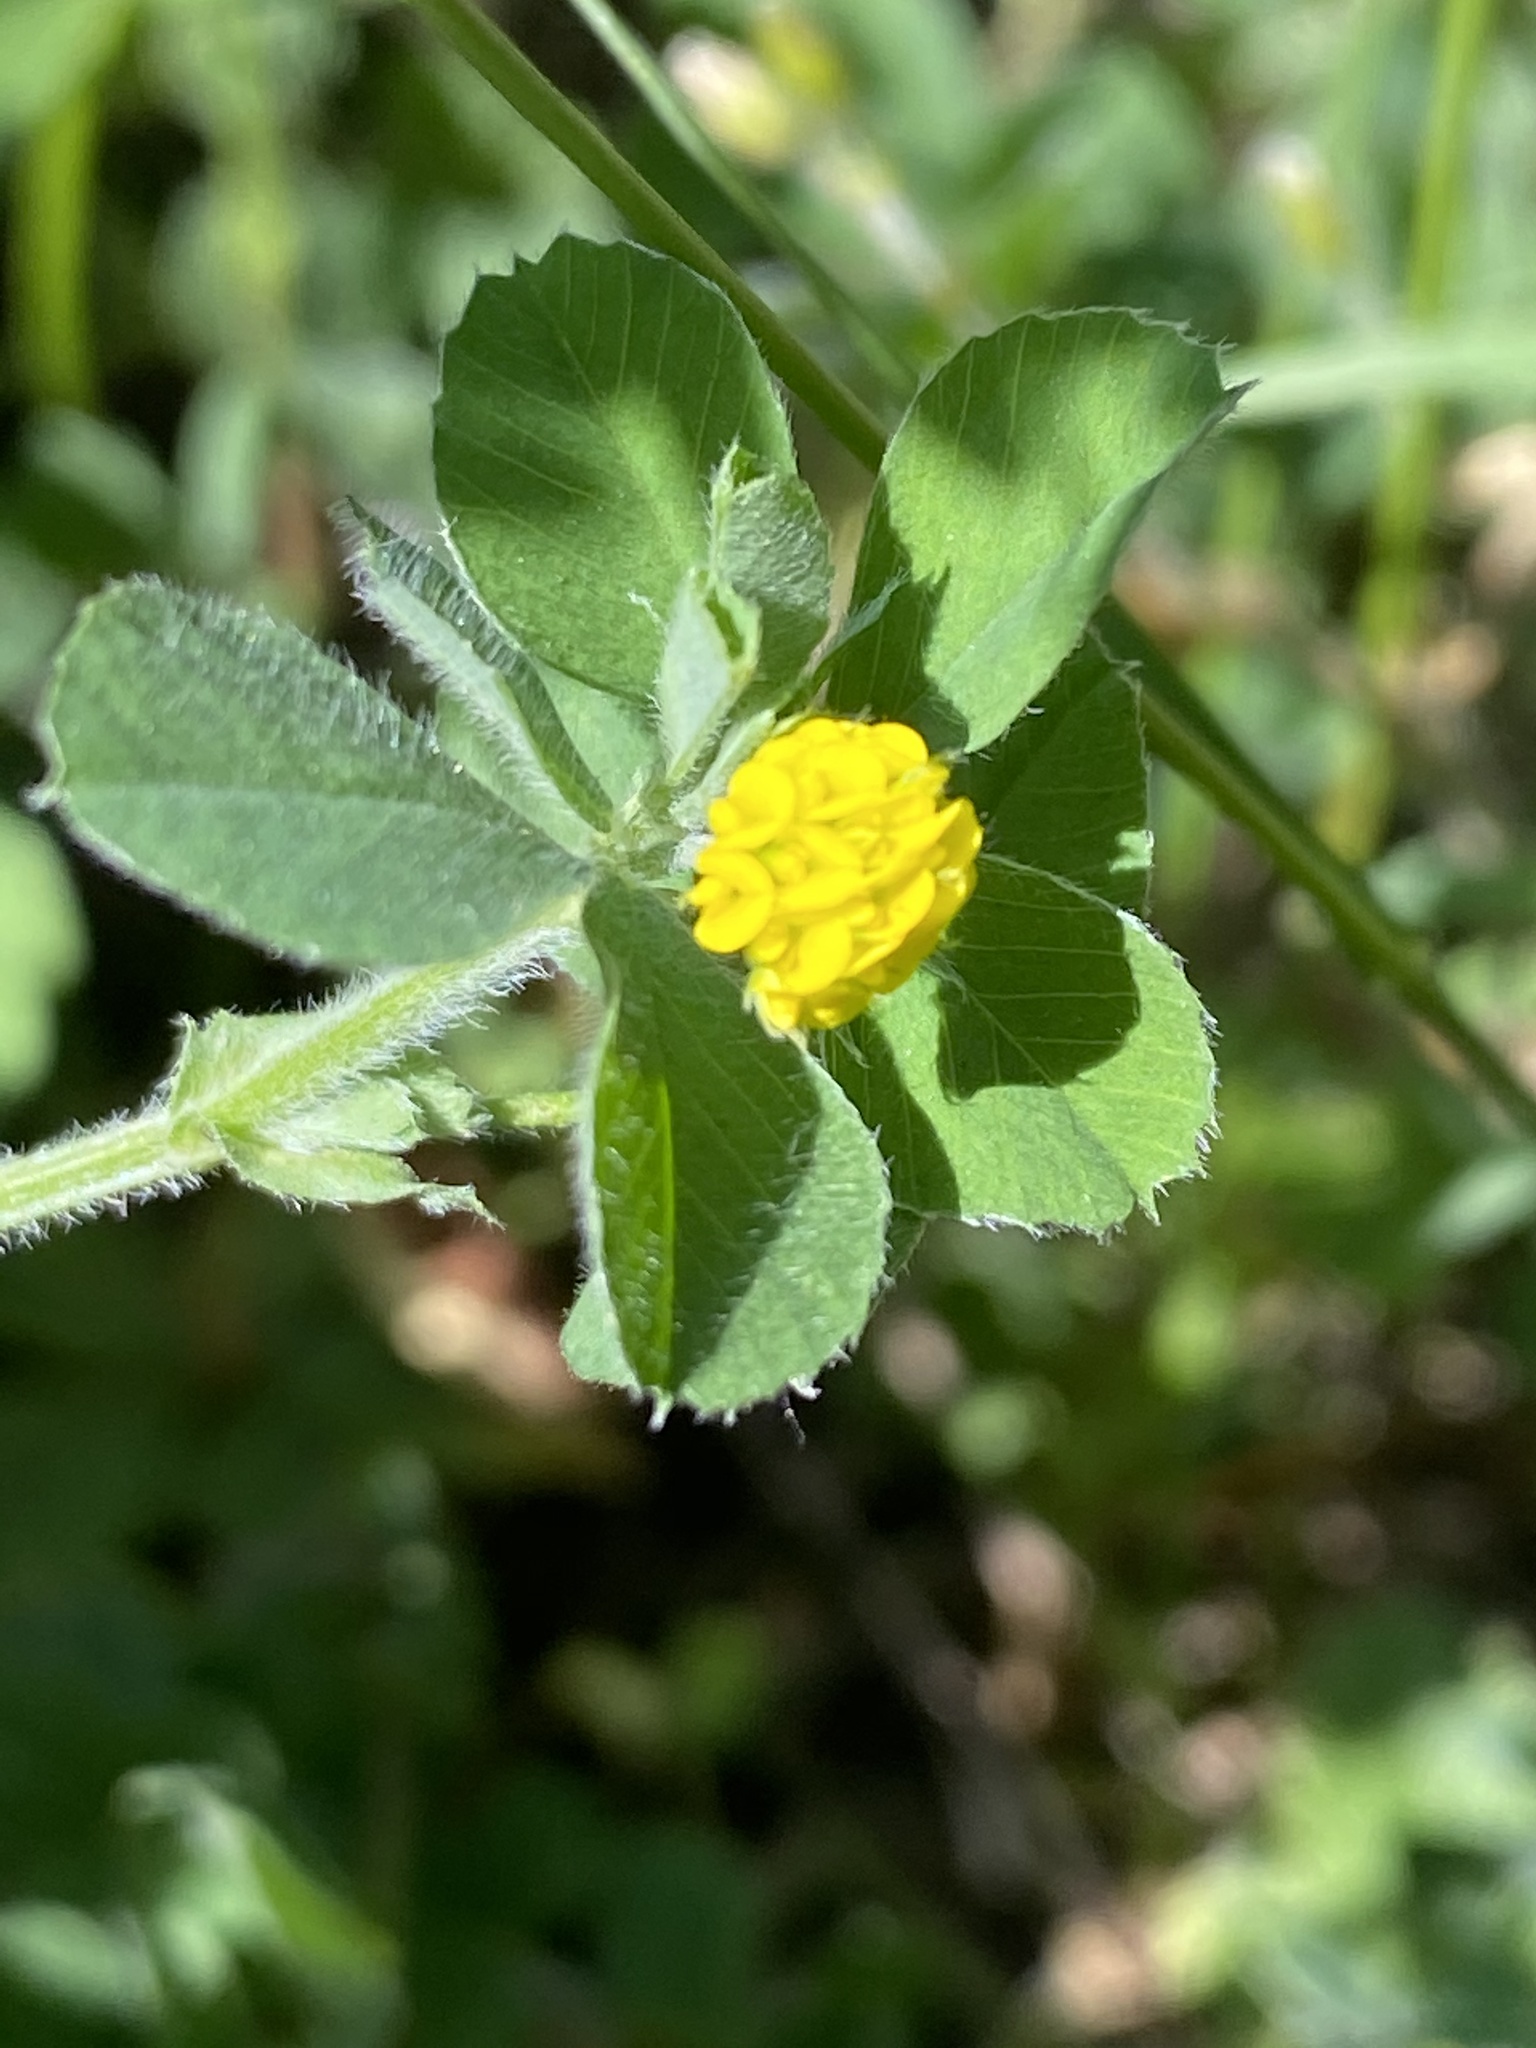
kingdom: Plantae
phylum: Tracheophyta
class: Magnoliopsida
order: Fabales
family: Fabaceae
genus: Medicago
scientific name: Medicago lupulina
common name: Black medick
